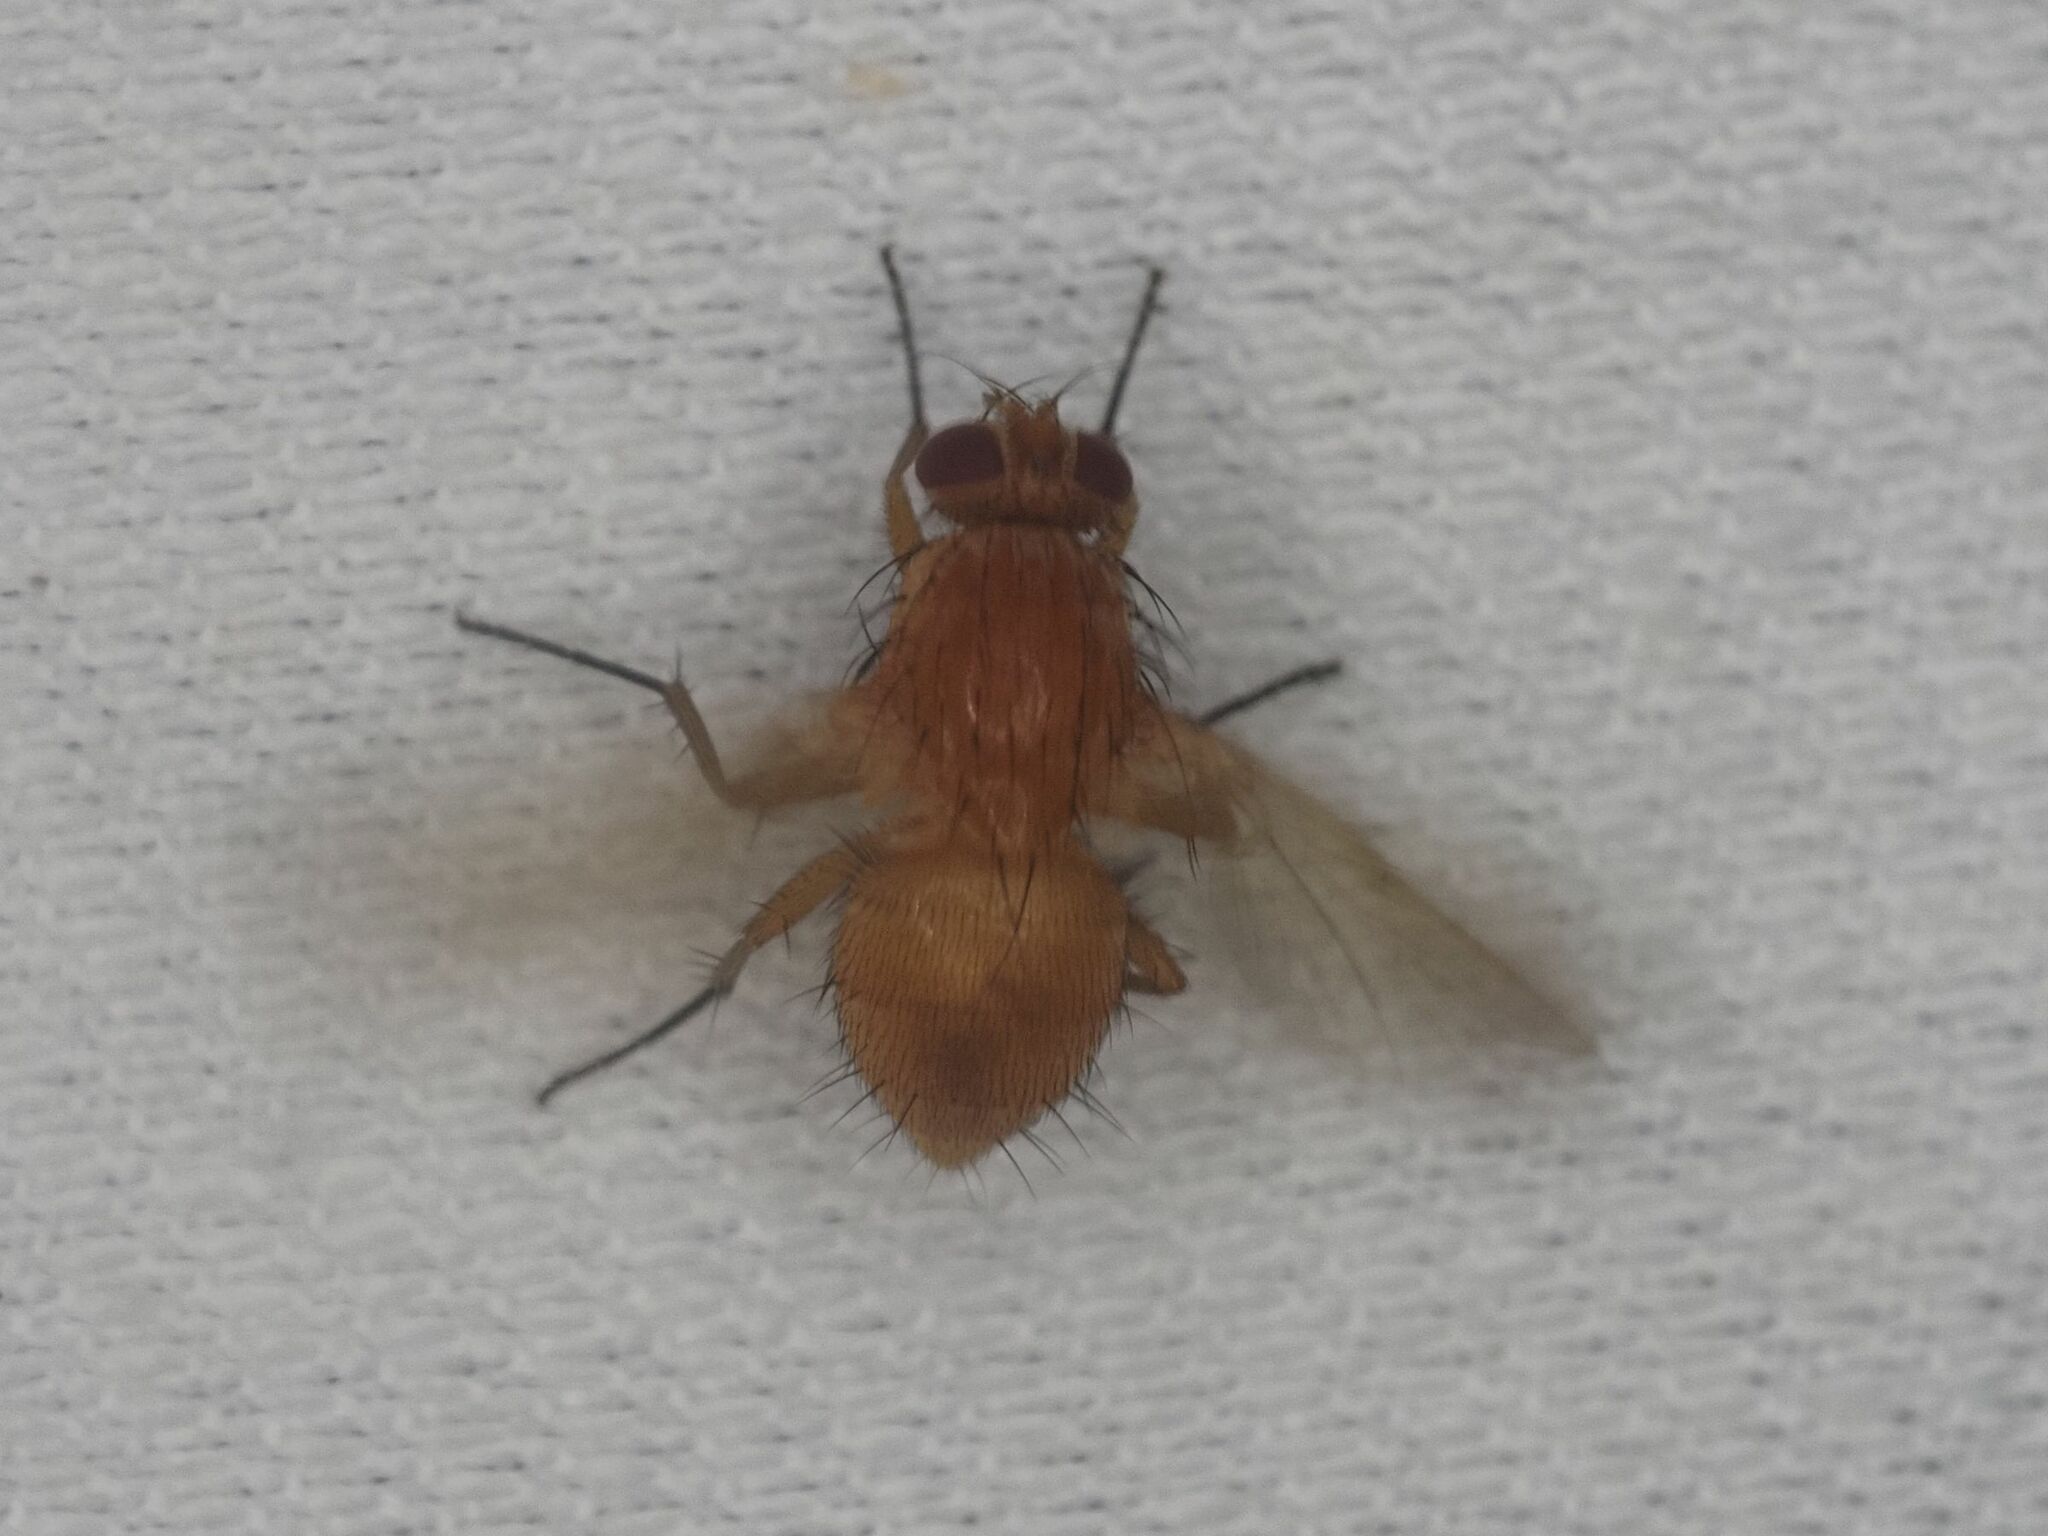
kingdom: Animalia
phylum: Arthropoda
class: Insecta
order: Diptera
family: Muscidae
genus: Phaonia
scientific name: Phaonia pallida
